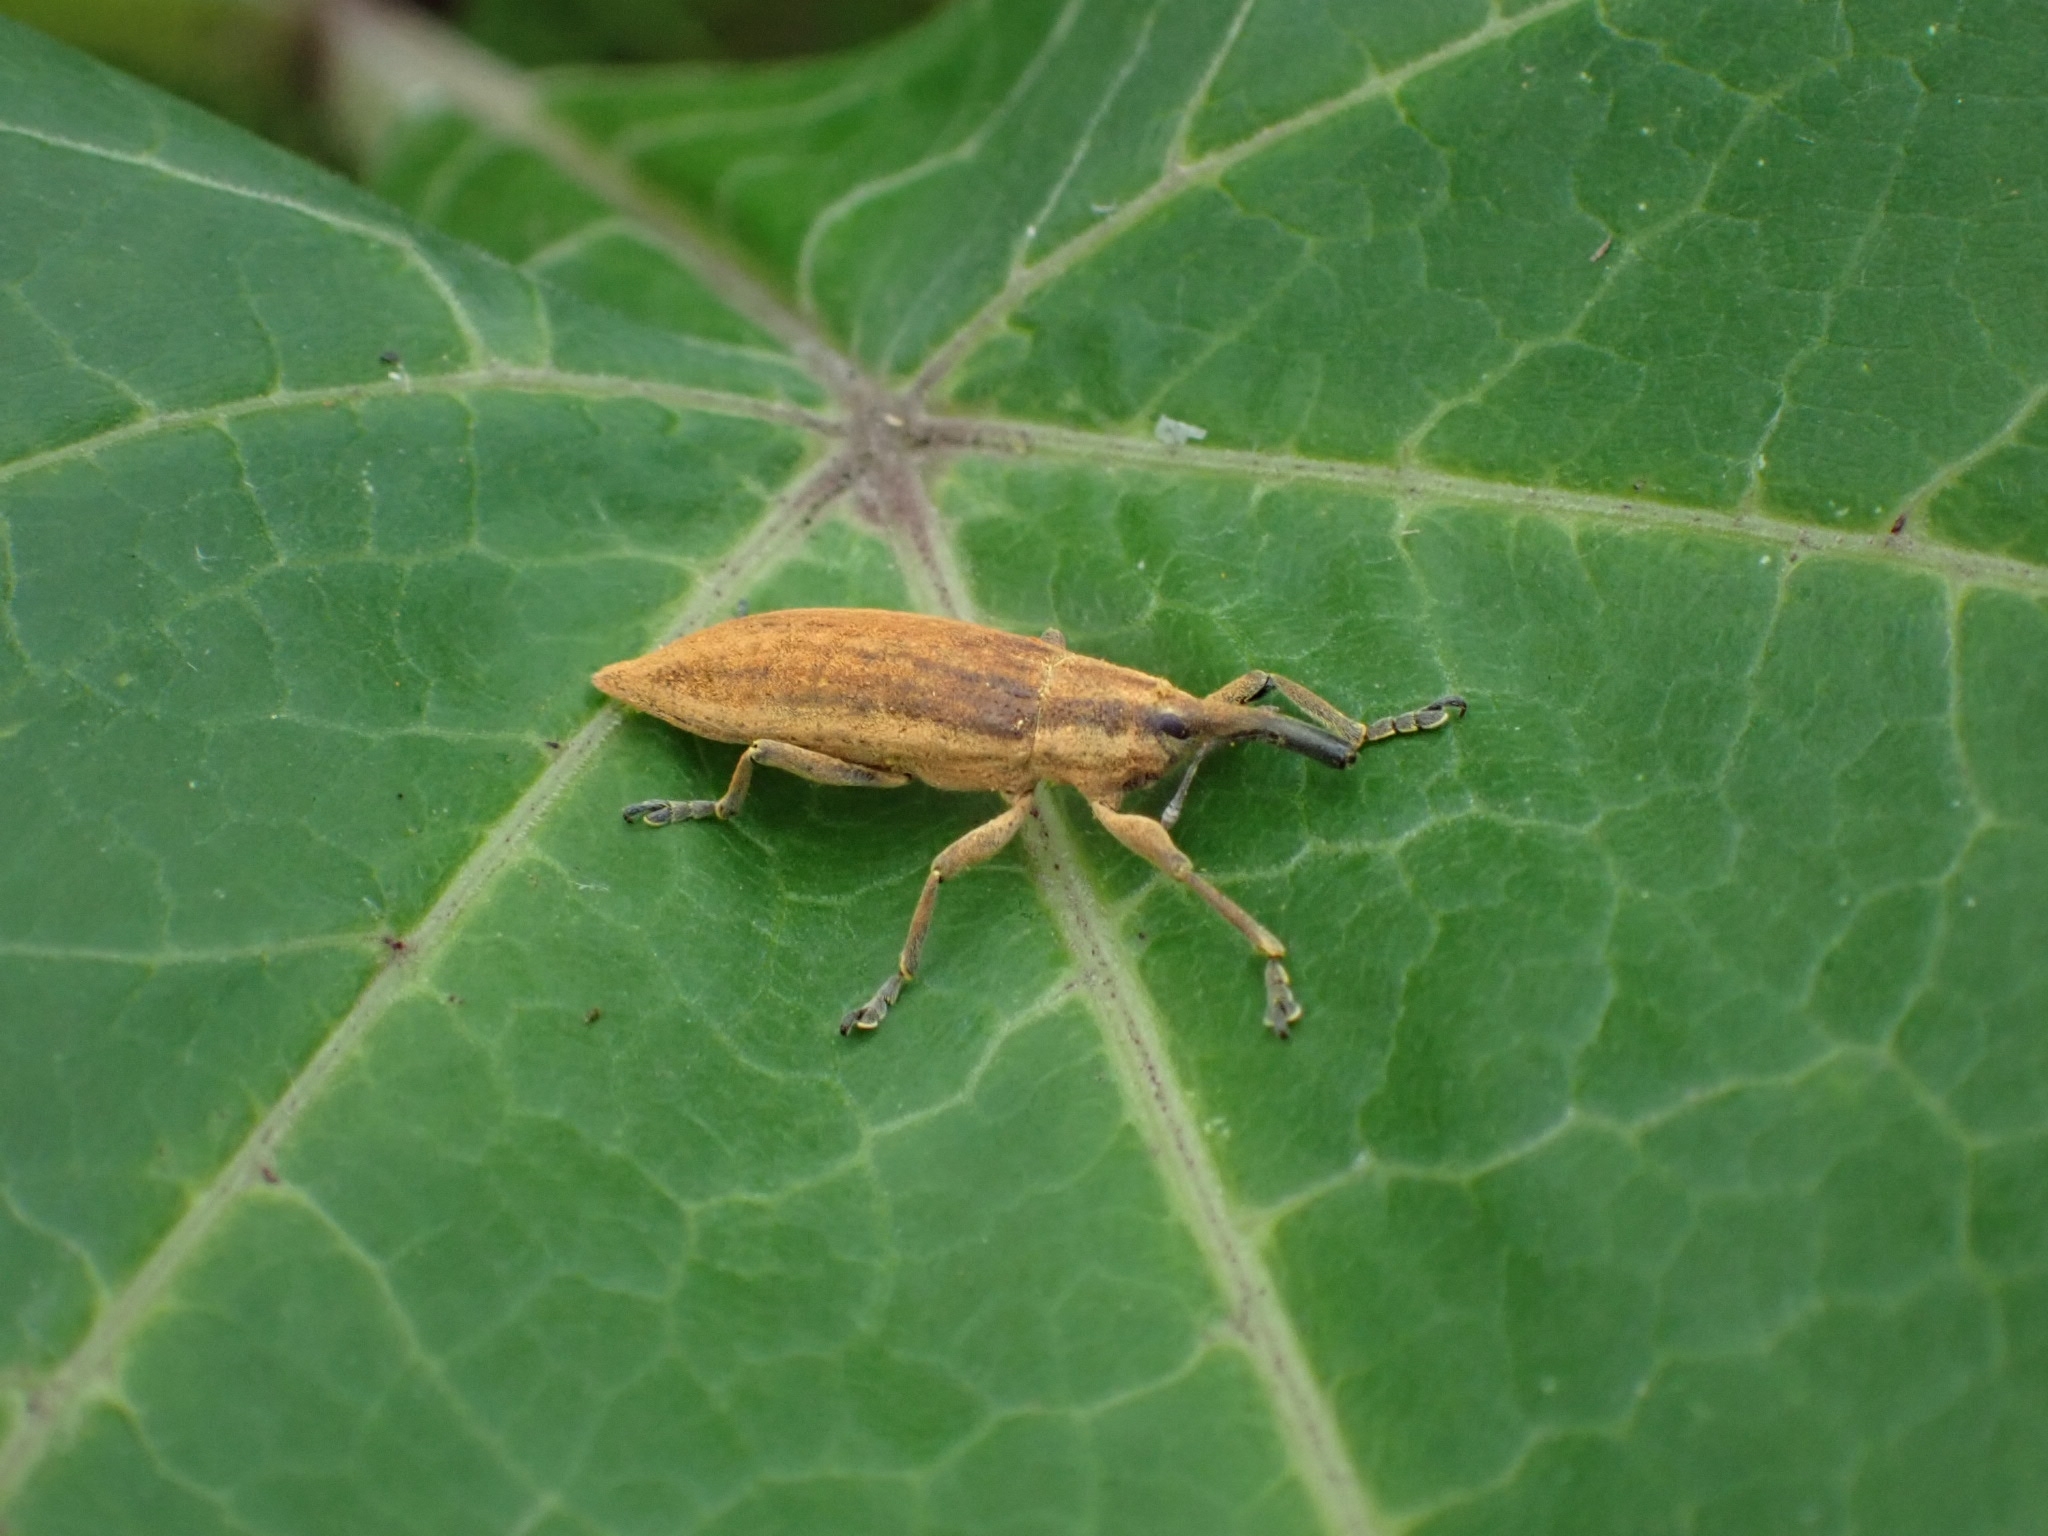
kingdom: Animalia
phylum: Arthropoda
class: Insecta
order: Coleoptera
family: Curculionidae
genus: Lixus
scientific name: Lixus iridis
